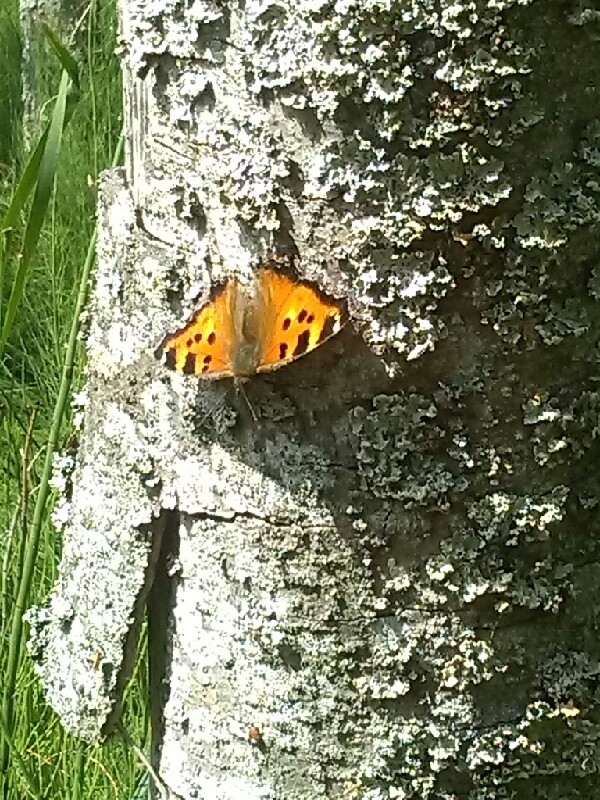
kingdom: Animalia
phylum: Arthropoda
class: Insecta
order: Lepidoptera
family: Nymphalidae
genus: Nymphalis
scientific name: Nymphalis xanthomelas
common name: Scarce tortoiseshell
